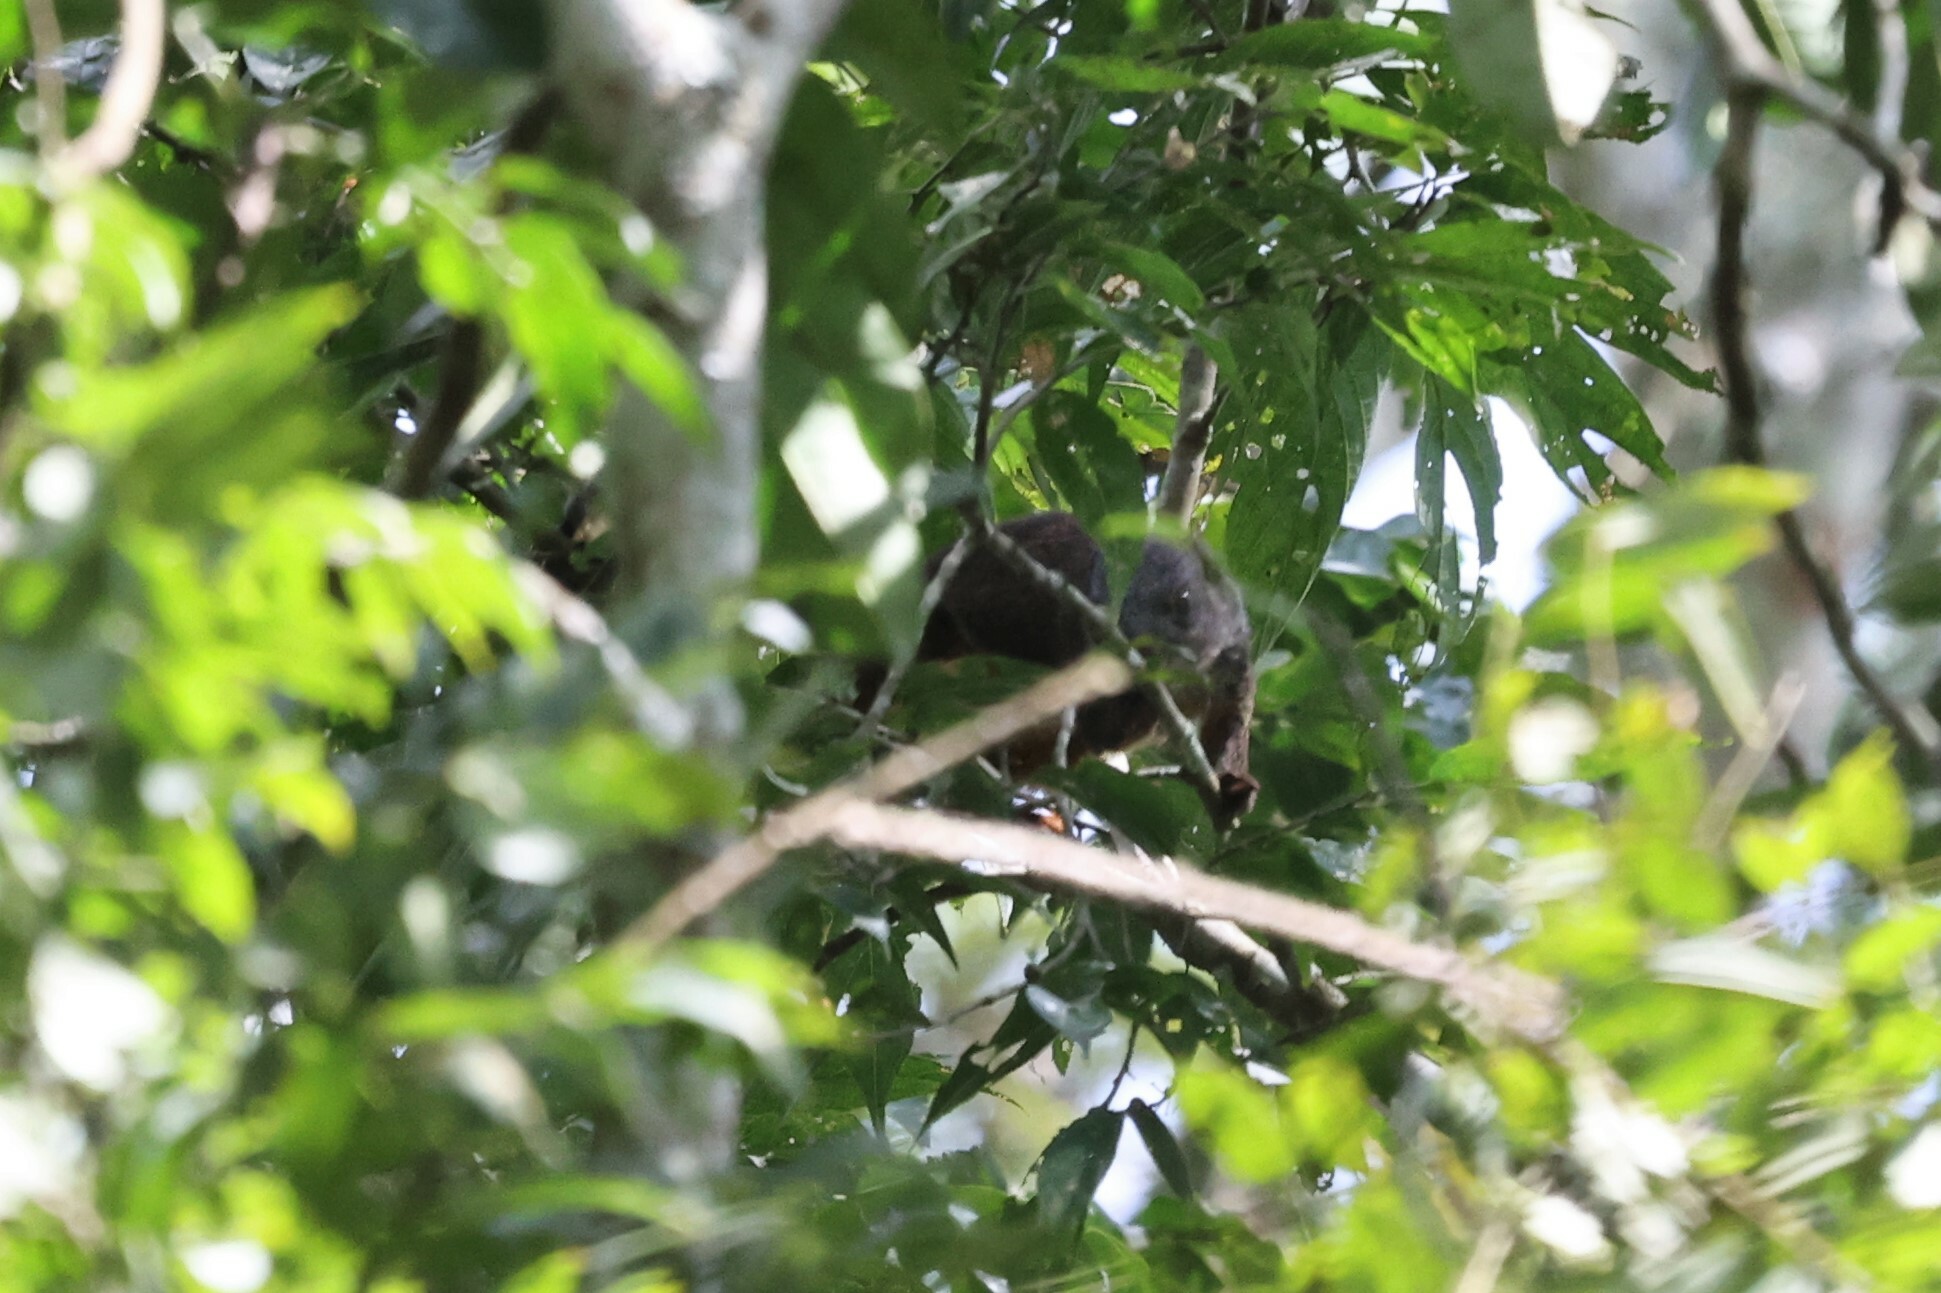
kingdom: Animalia
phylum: Chordata
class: Mammalia
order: Rodentia
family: Sciuridae
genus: Protoxerus
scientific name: Protoxerus stangeri
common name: Forest giant squirrel
